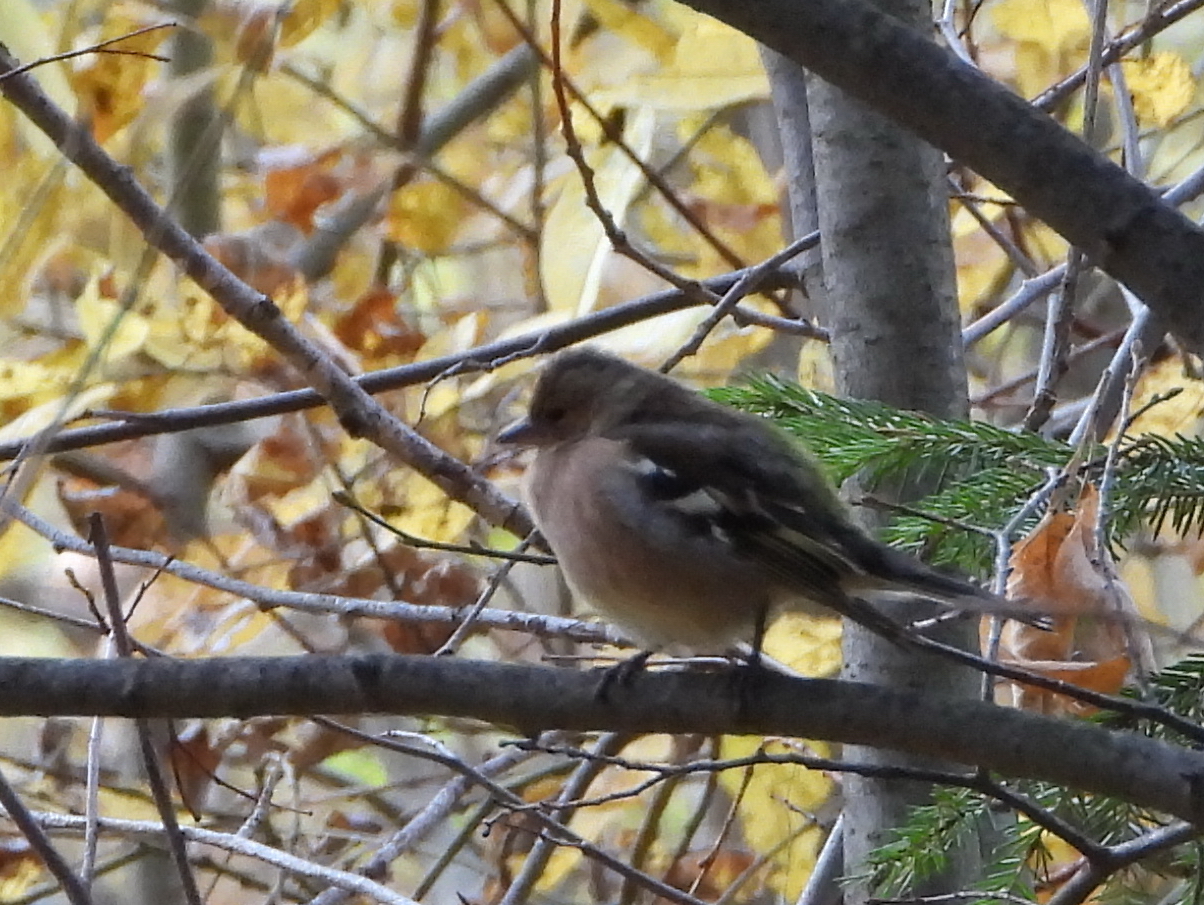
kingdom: Animalia
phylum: Chordata
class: Aves
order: Passeriformes
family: Fringillidae
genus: Fringilla
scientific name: Fringilla coelebs
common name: Common chaffinch
